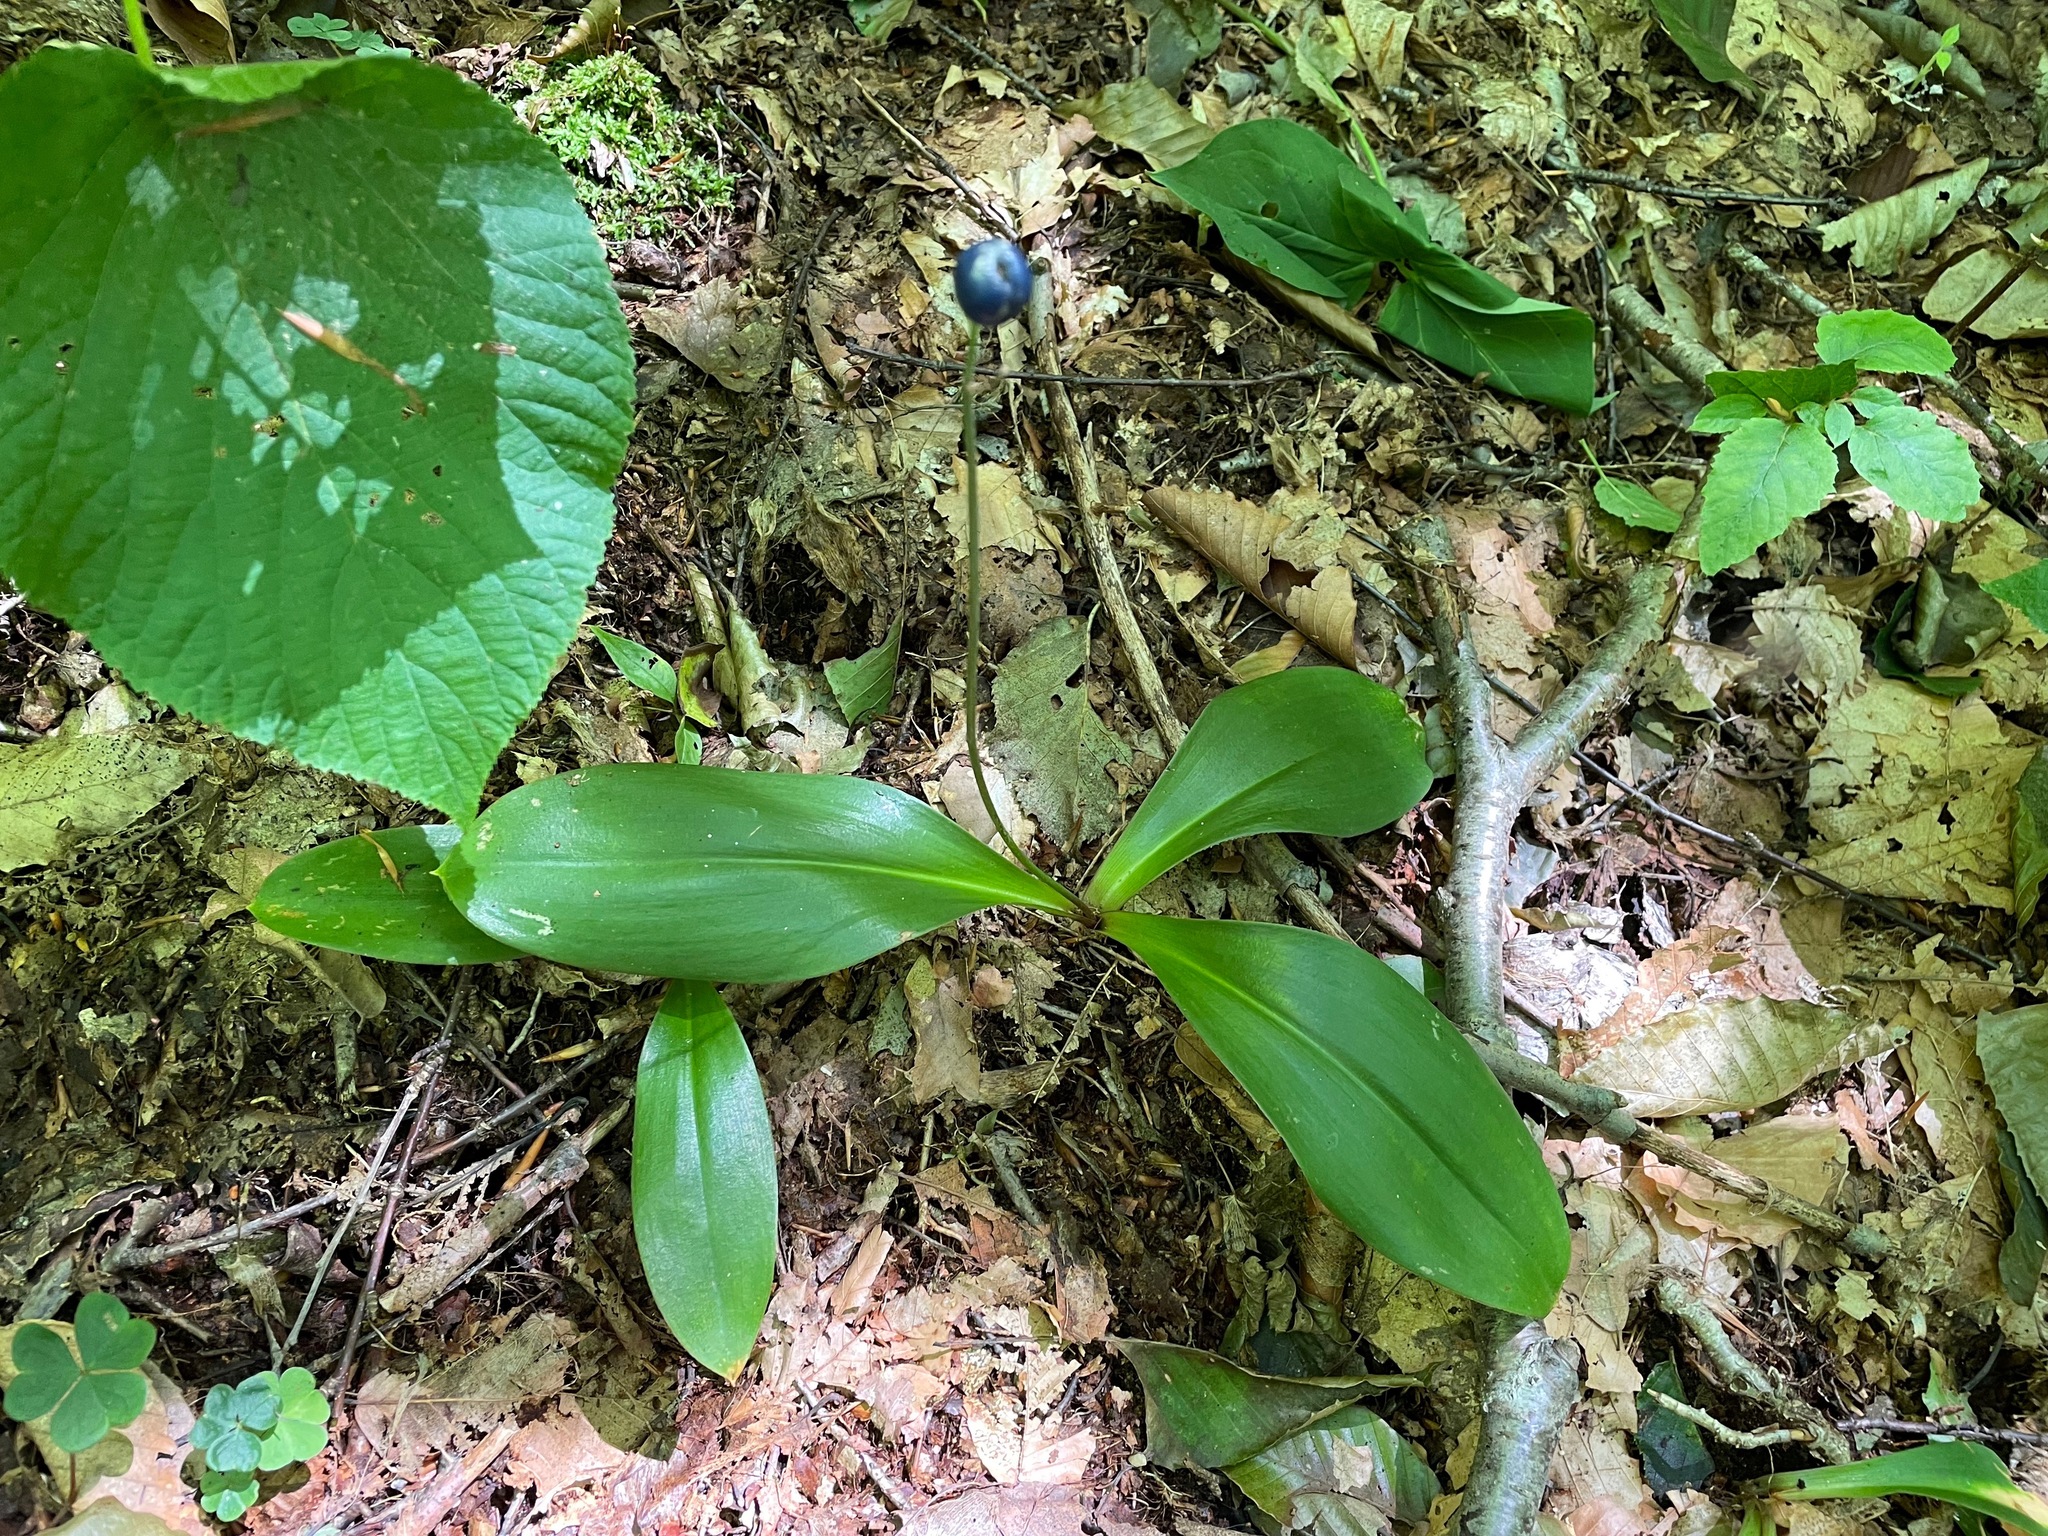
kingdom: Plantae
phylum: Tracheophyta
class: Liliopsida
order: Liliales
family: Liliaceae
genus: Clintonia
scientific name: Clintonia borealis
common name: Yellow clintonia
